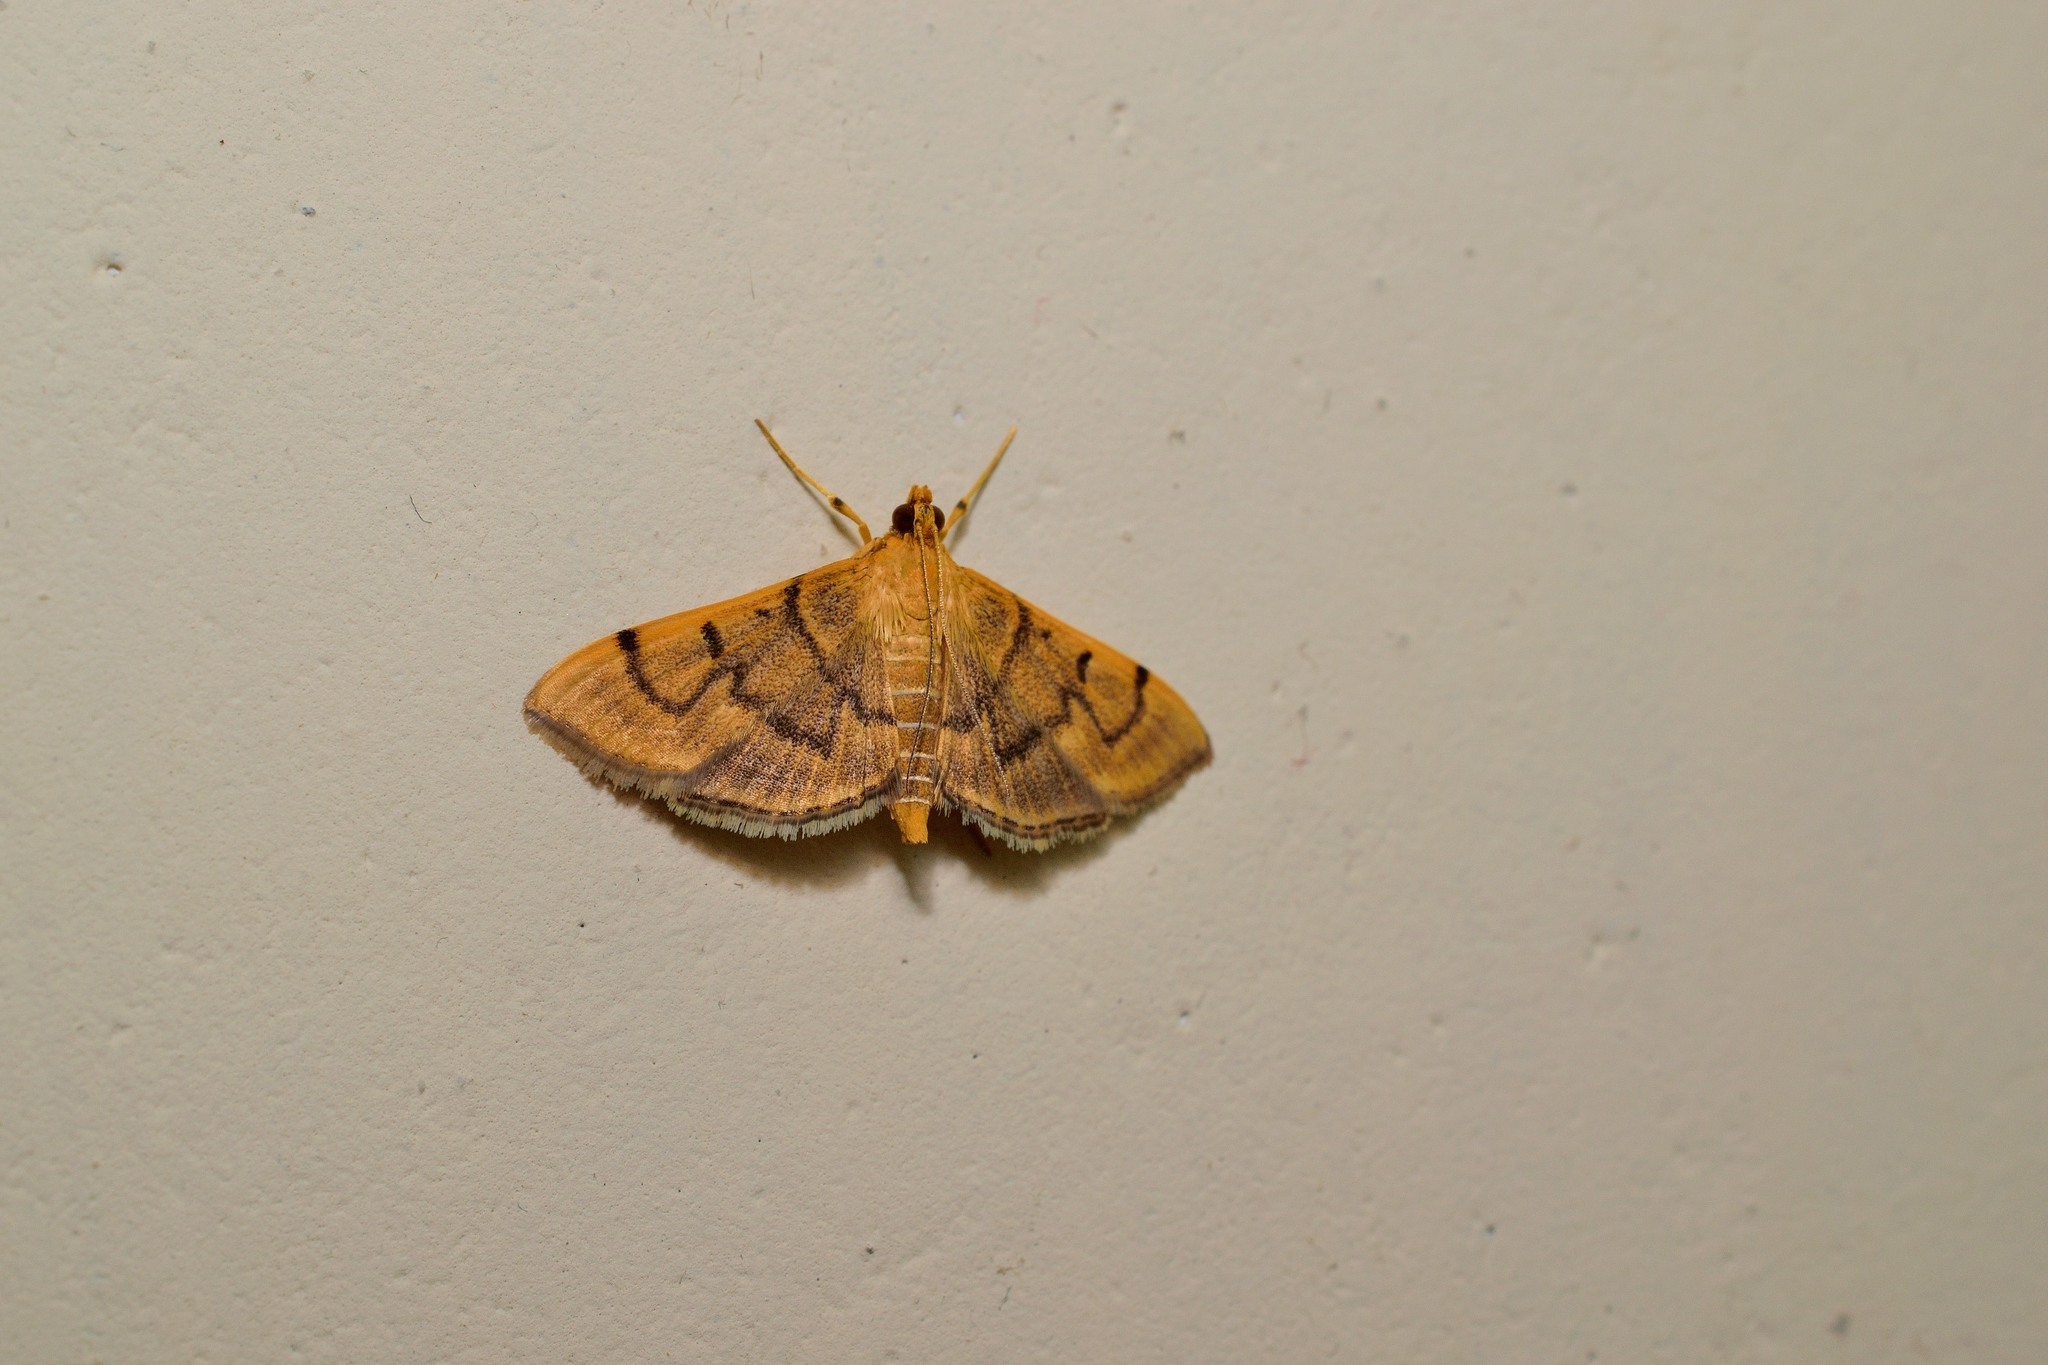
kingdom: Animalia
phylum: Arthropoda
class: Insecta
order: Lepidoptera
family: Crambidae
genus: Omiodes
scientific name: Omiodes indicata
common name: Bean-leaf webworm moth
